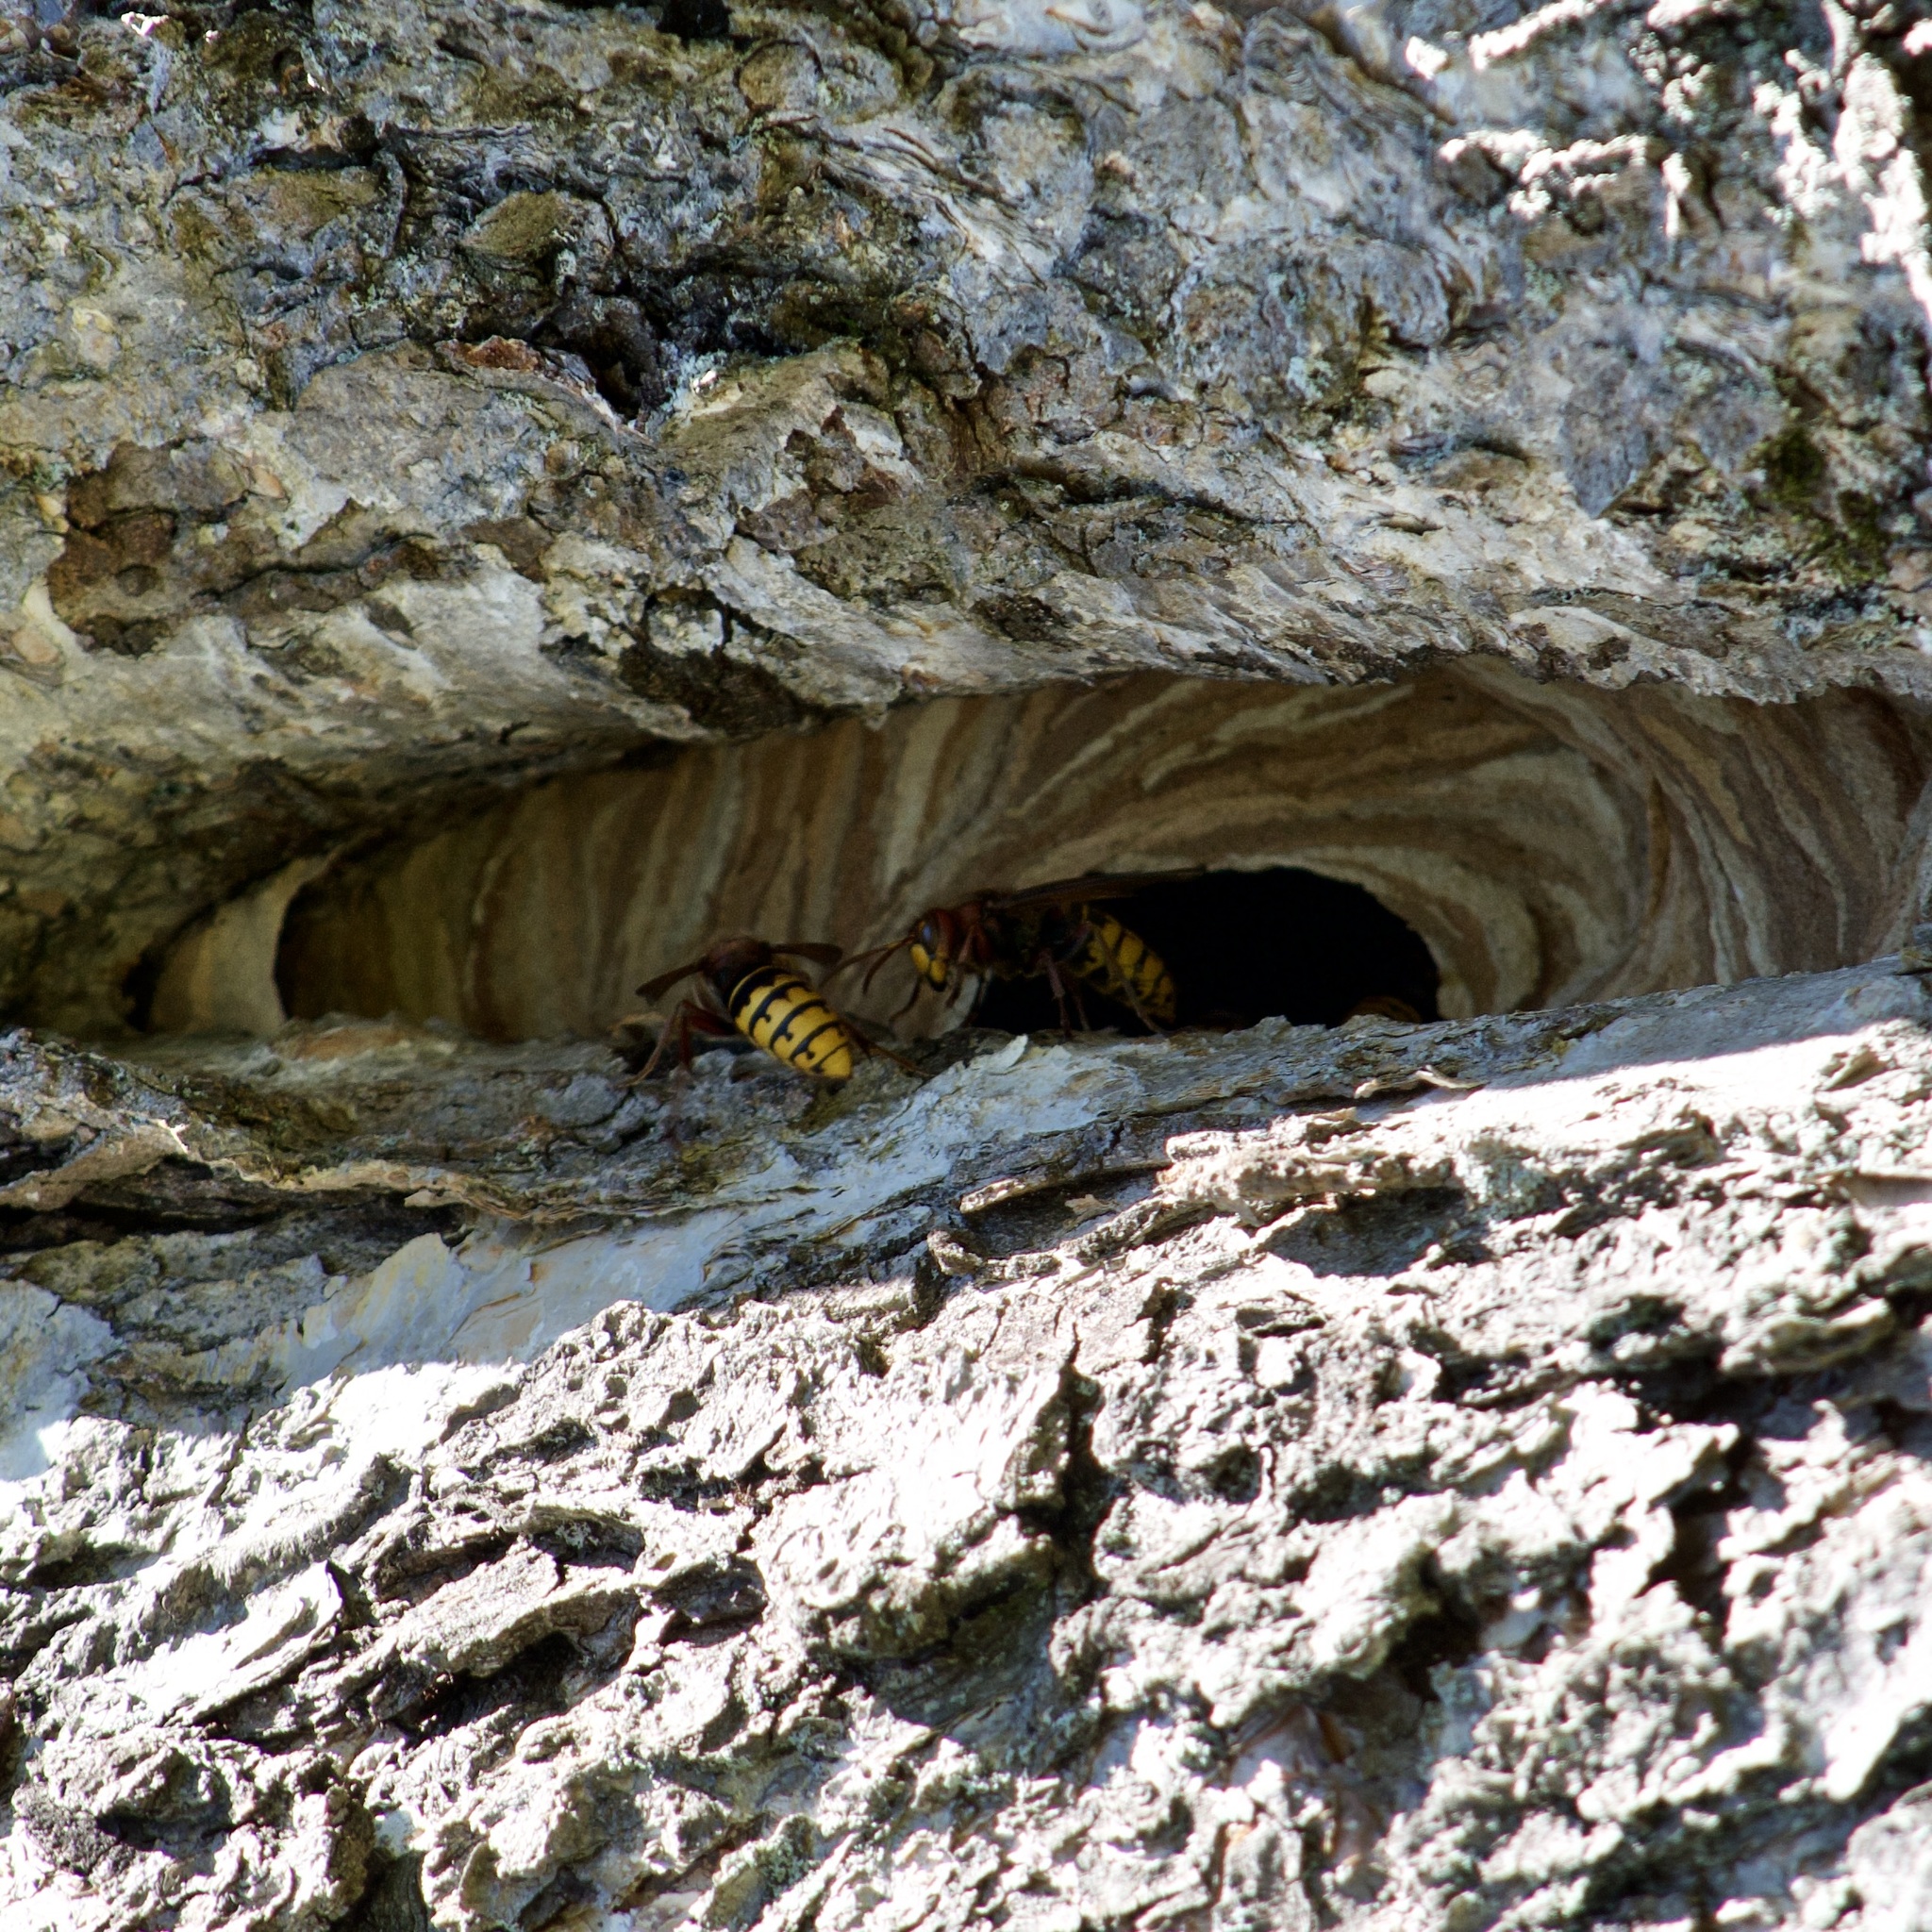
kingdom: Animalia
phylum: Arthropoda
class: Insecta
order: Hymenoptera
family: Vespidae
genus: Vespa
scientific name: Vespa crabro
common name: Hornet
